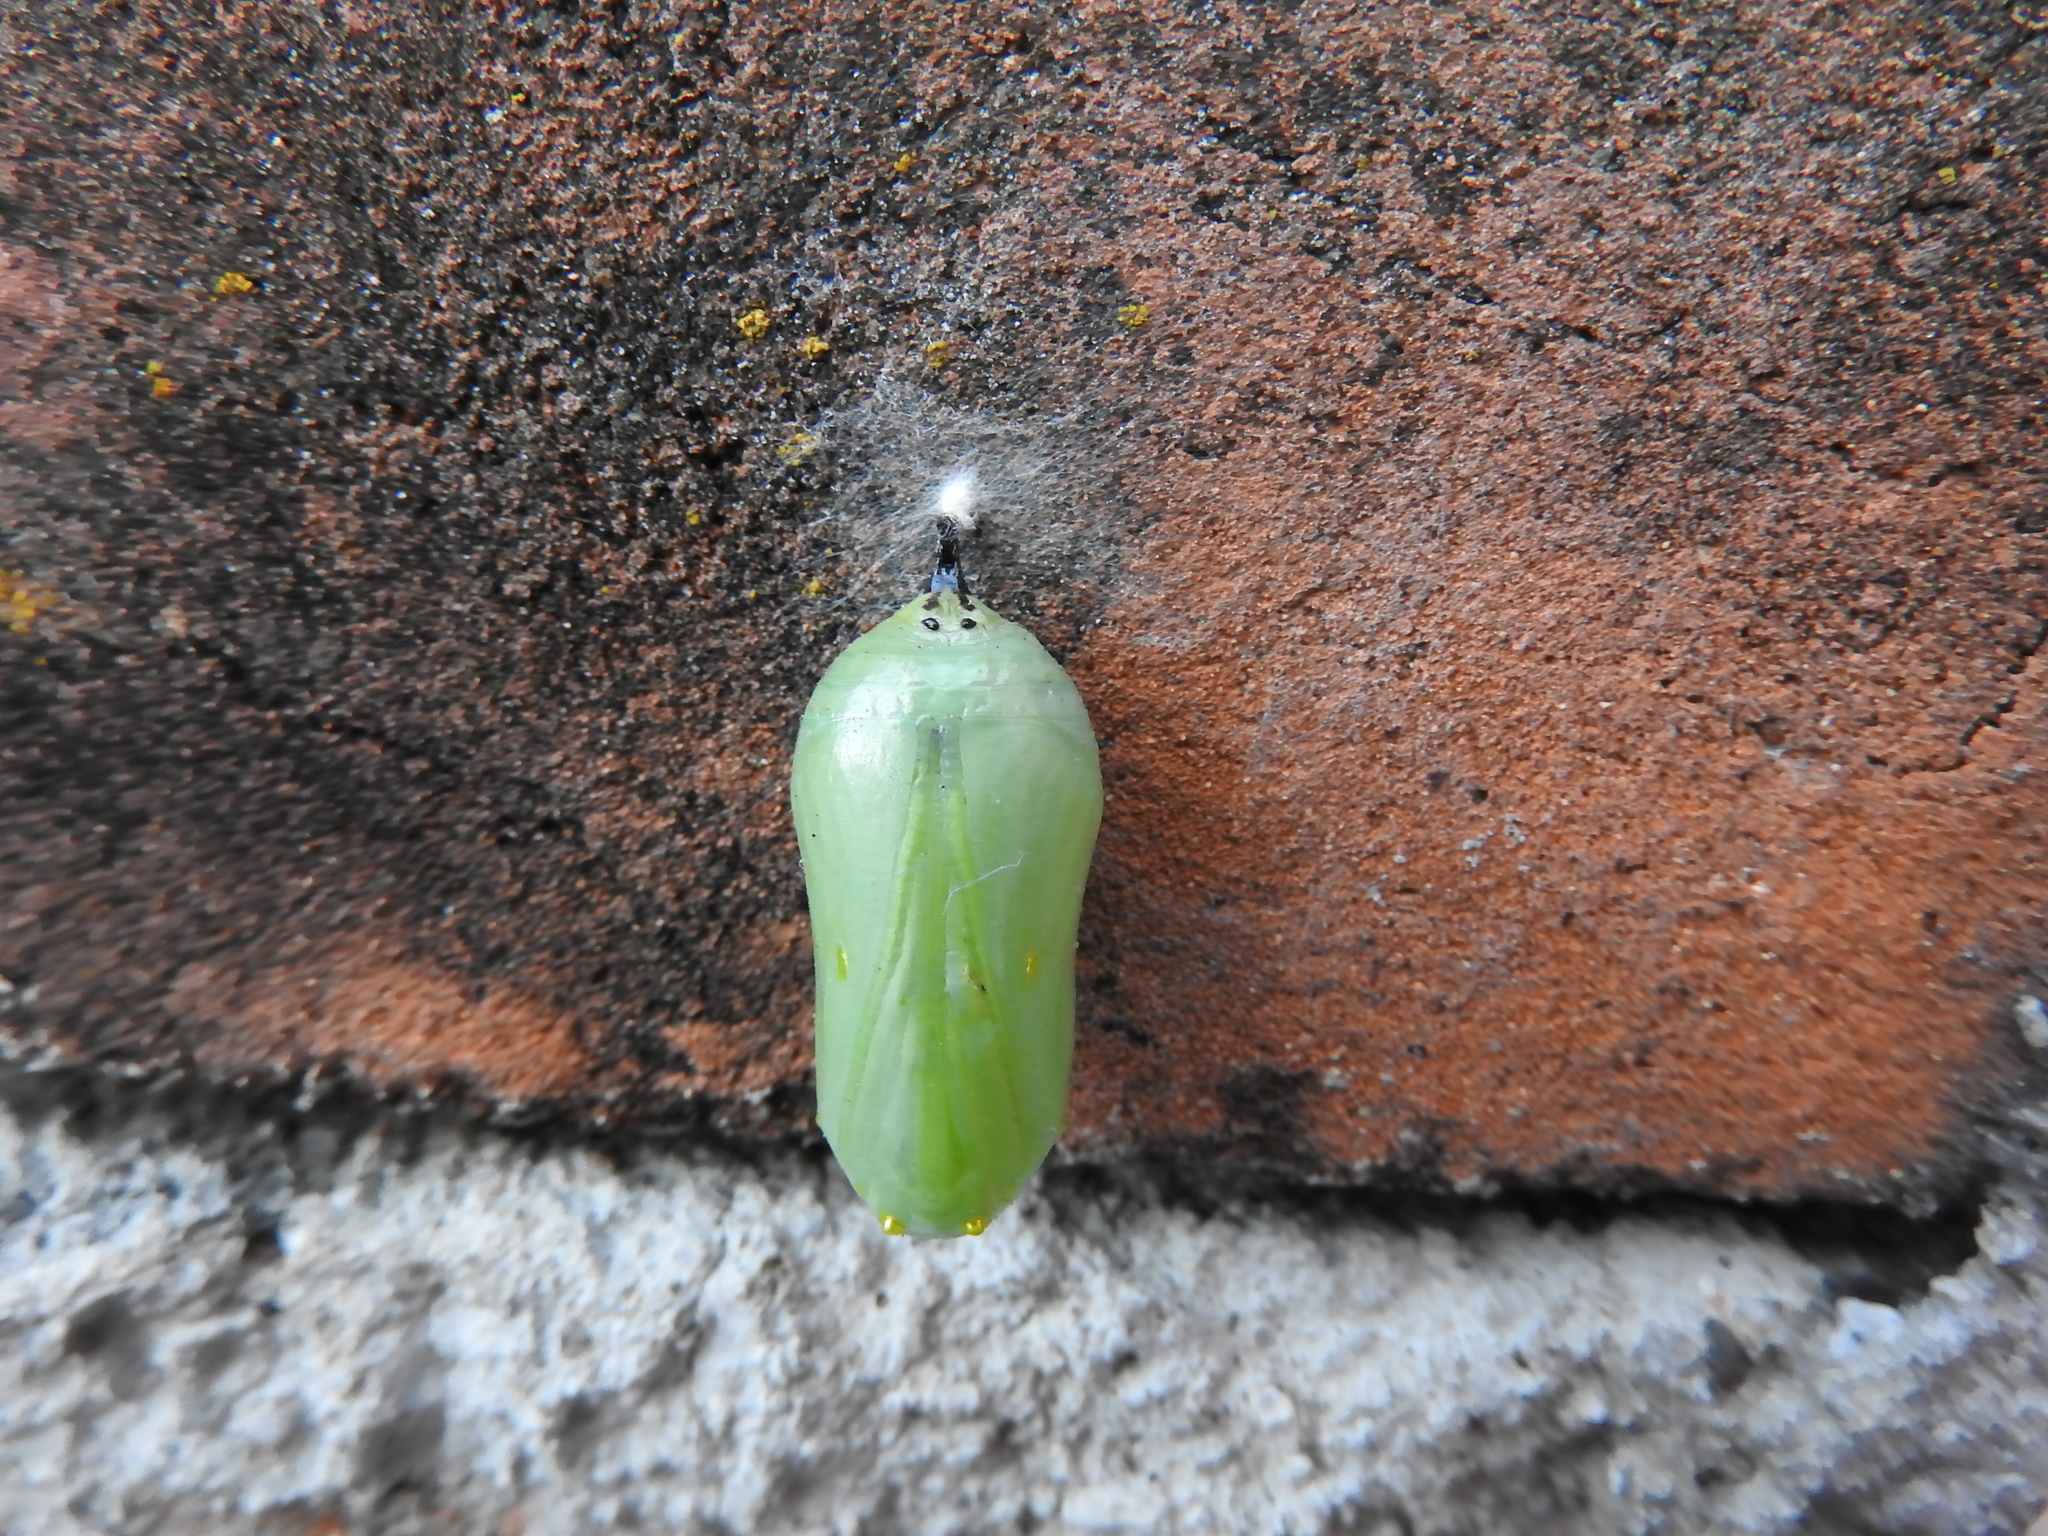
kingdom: Animalia
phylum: Arthropoda
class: Insecta
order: Lepidoptera
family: Nymphalidae
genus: Danaus
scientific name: Danaus plexippus
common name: Monarch
